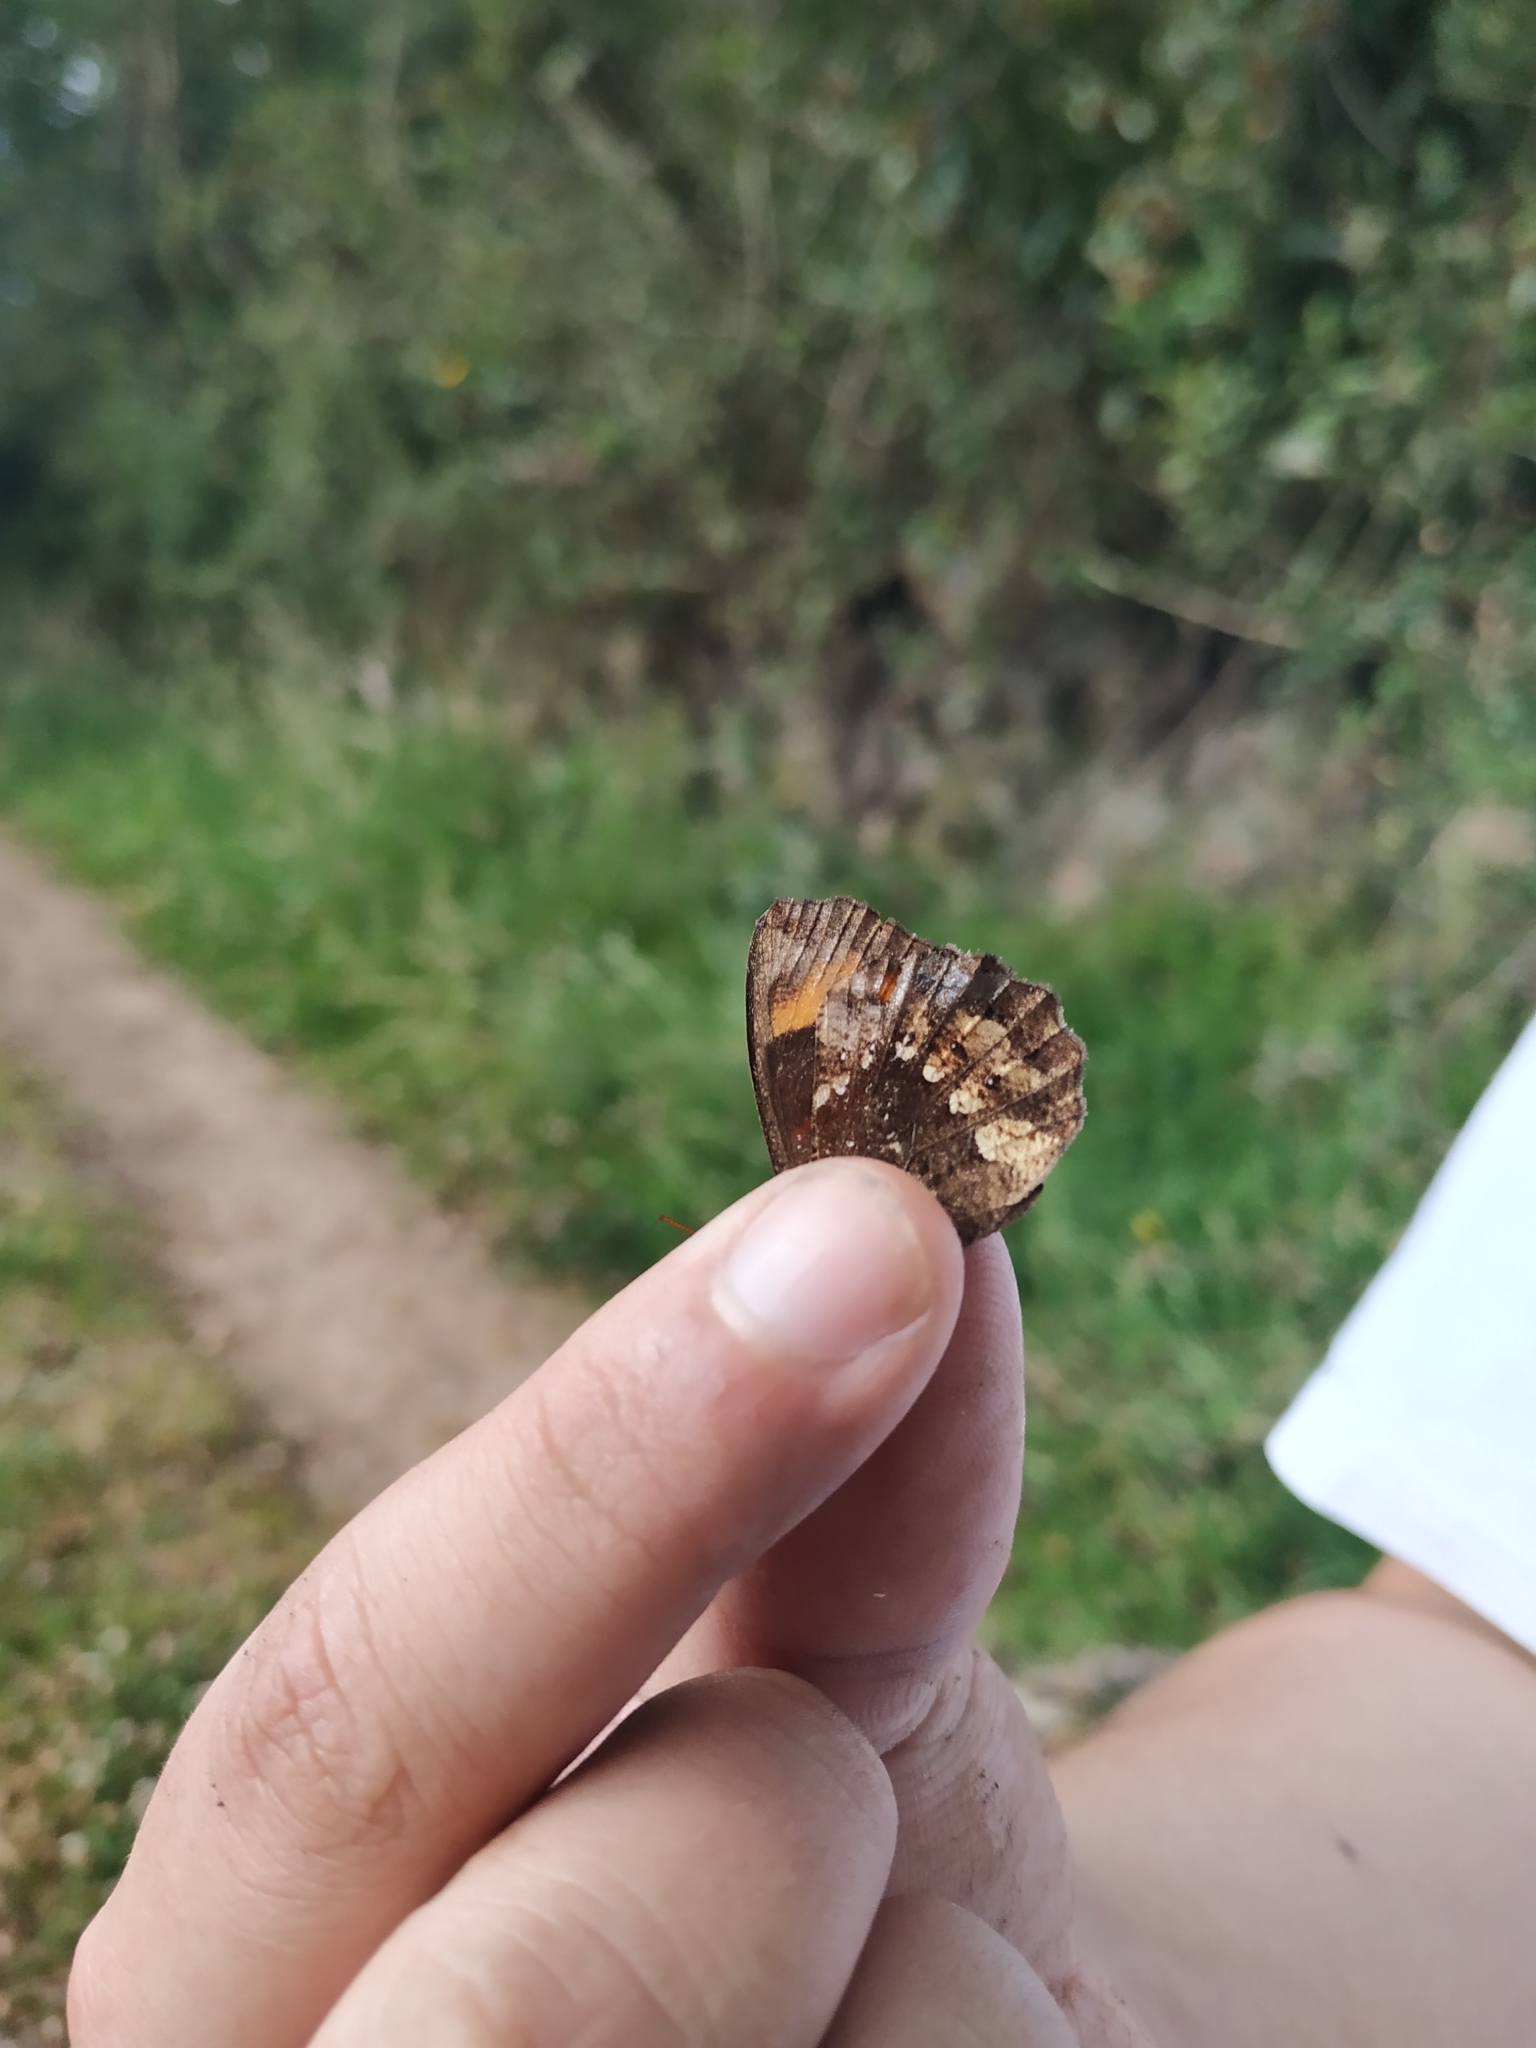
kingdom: Animalia
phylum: Arthropoda
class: Insecta
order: Lepidoptera
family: Nymphalidae
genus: Pedaliodes
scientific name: Pedaliodes
